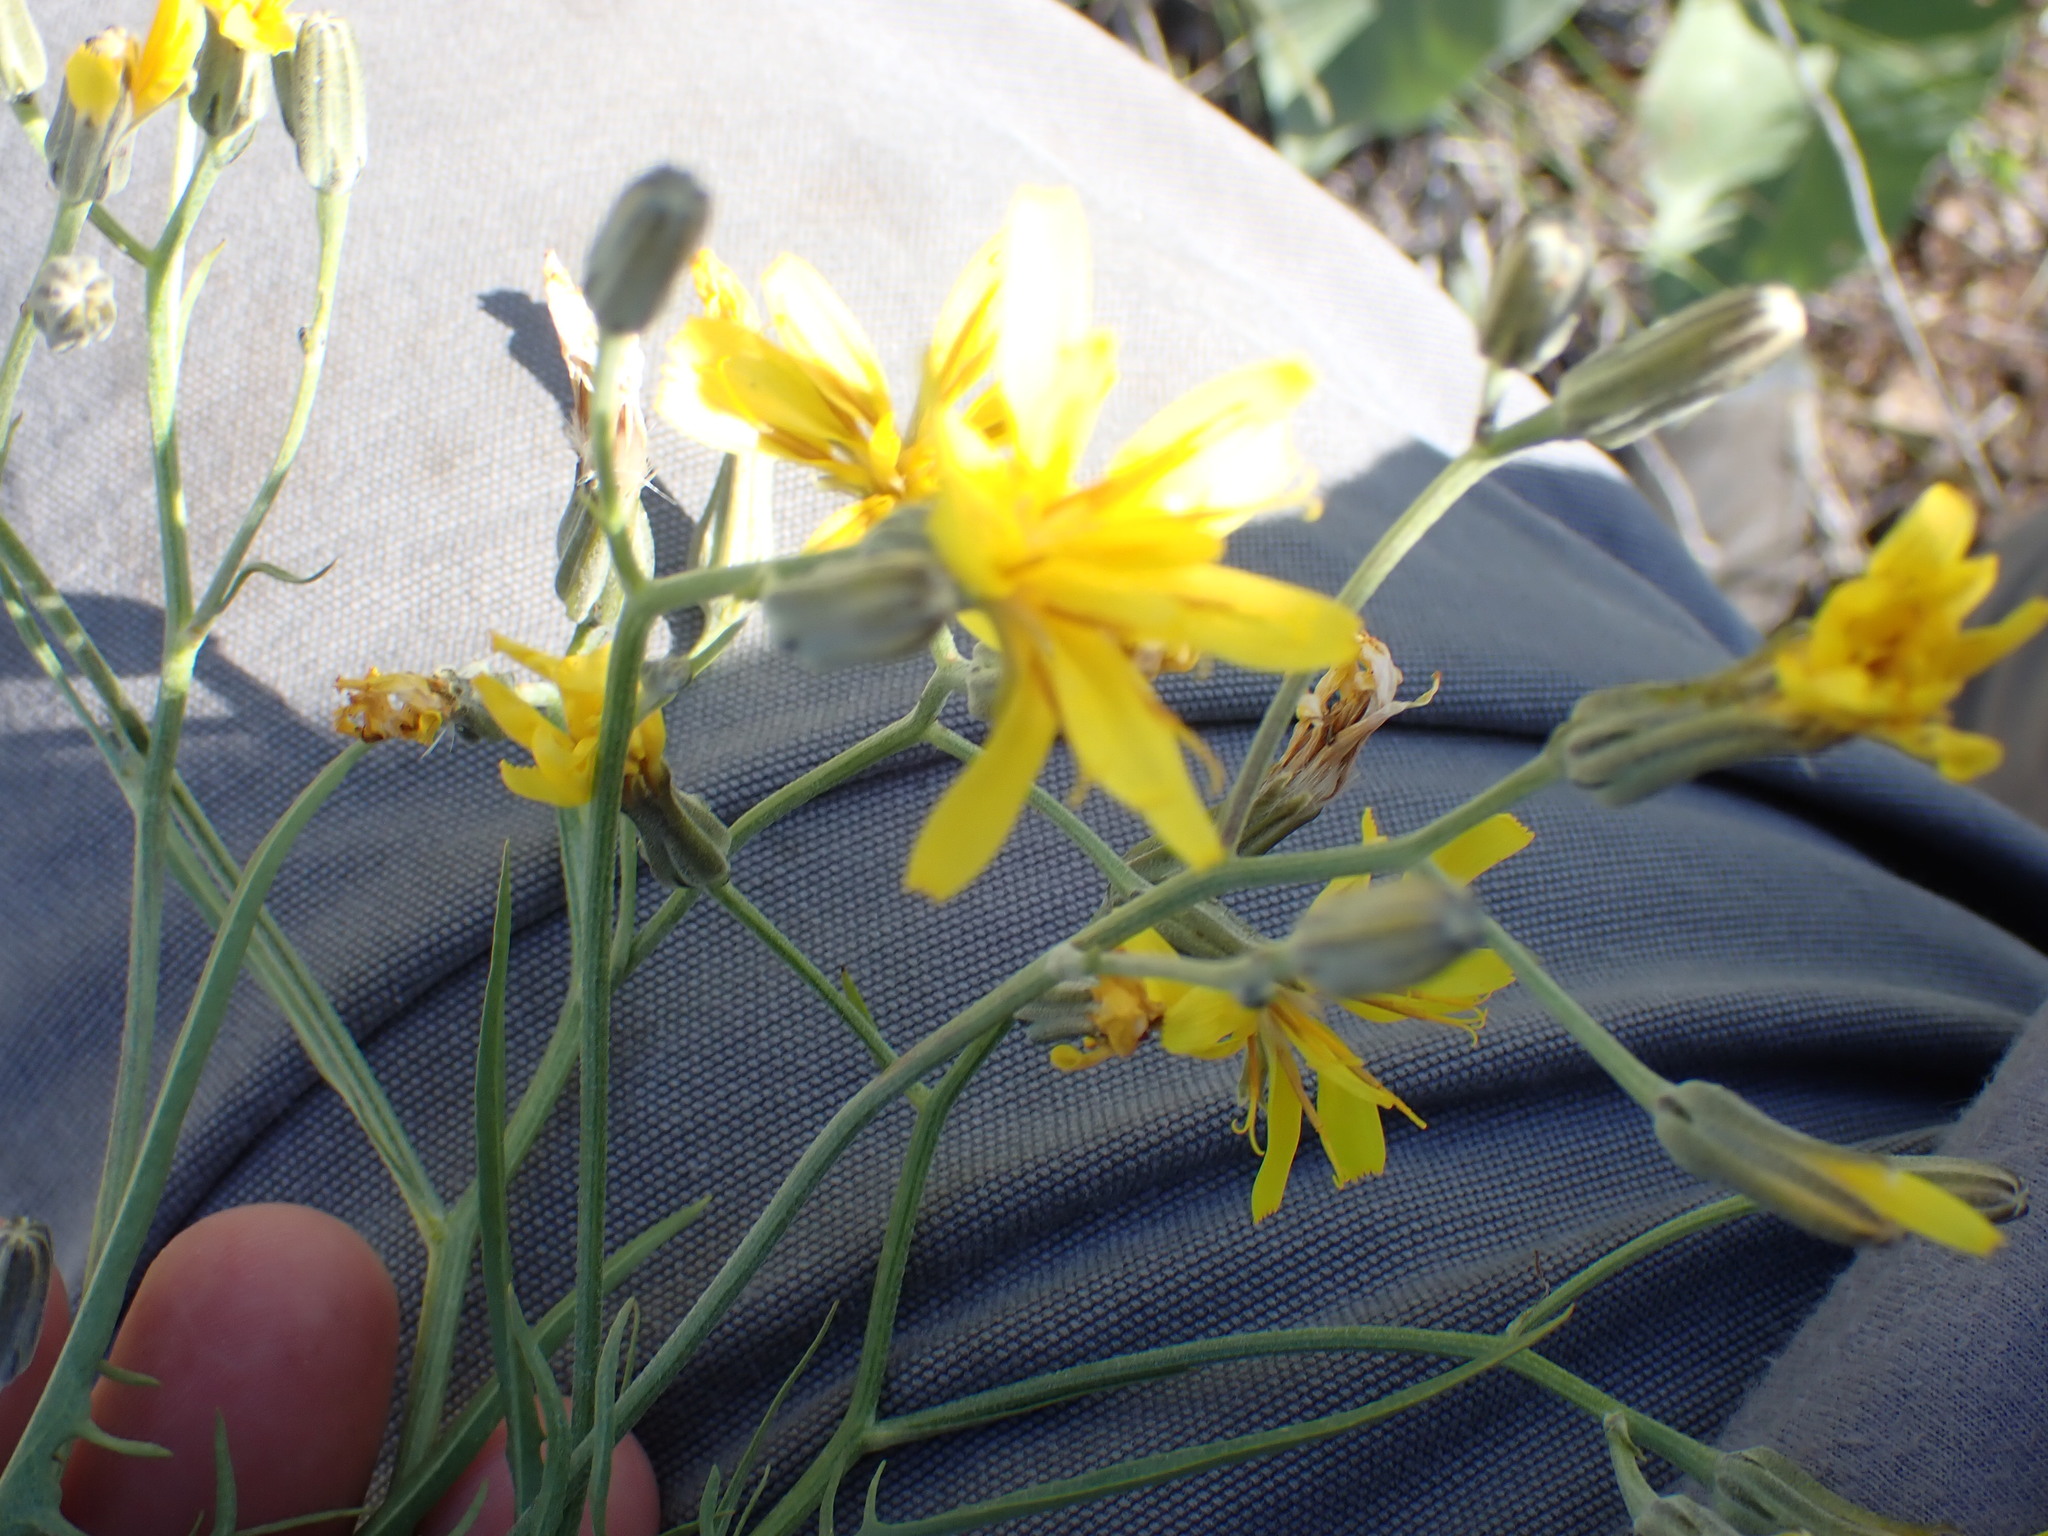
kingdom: Plantae
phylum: Tracheophyta
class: Magnoliopsida
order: Asterales
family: Asteraceae
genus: Crepis
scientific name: Crepis atribarba
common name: Dark hawk's-beard
